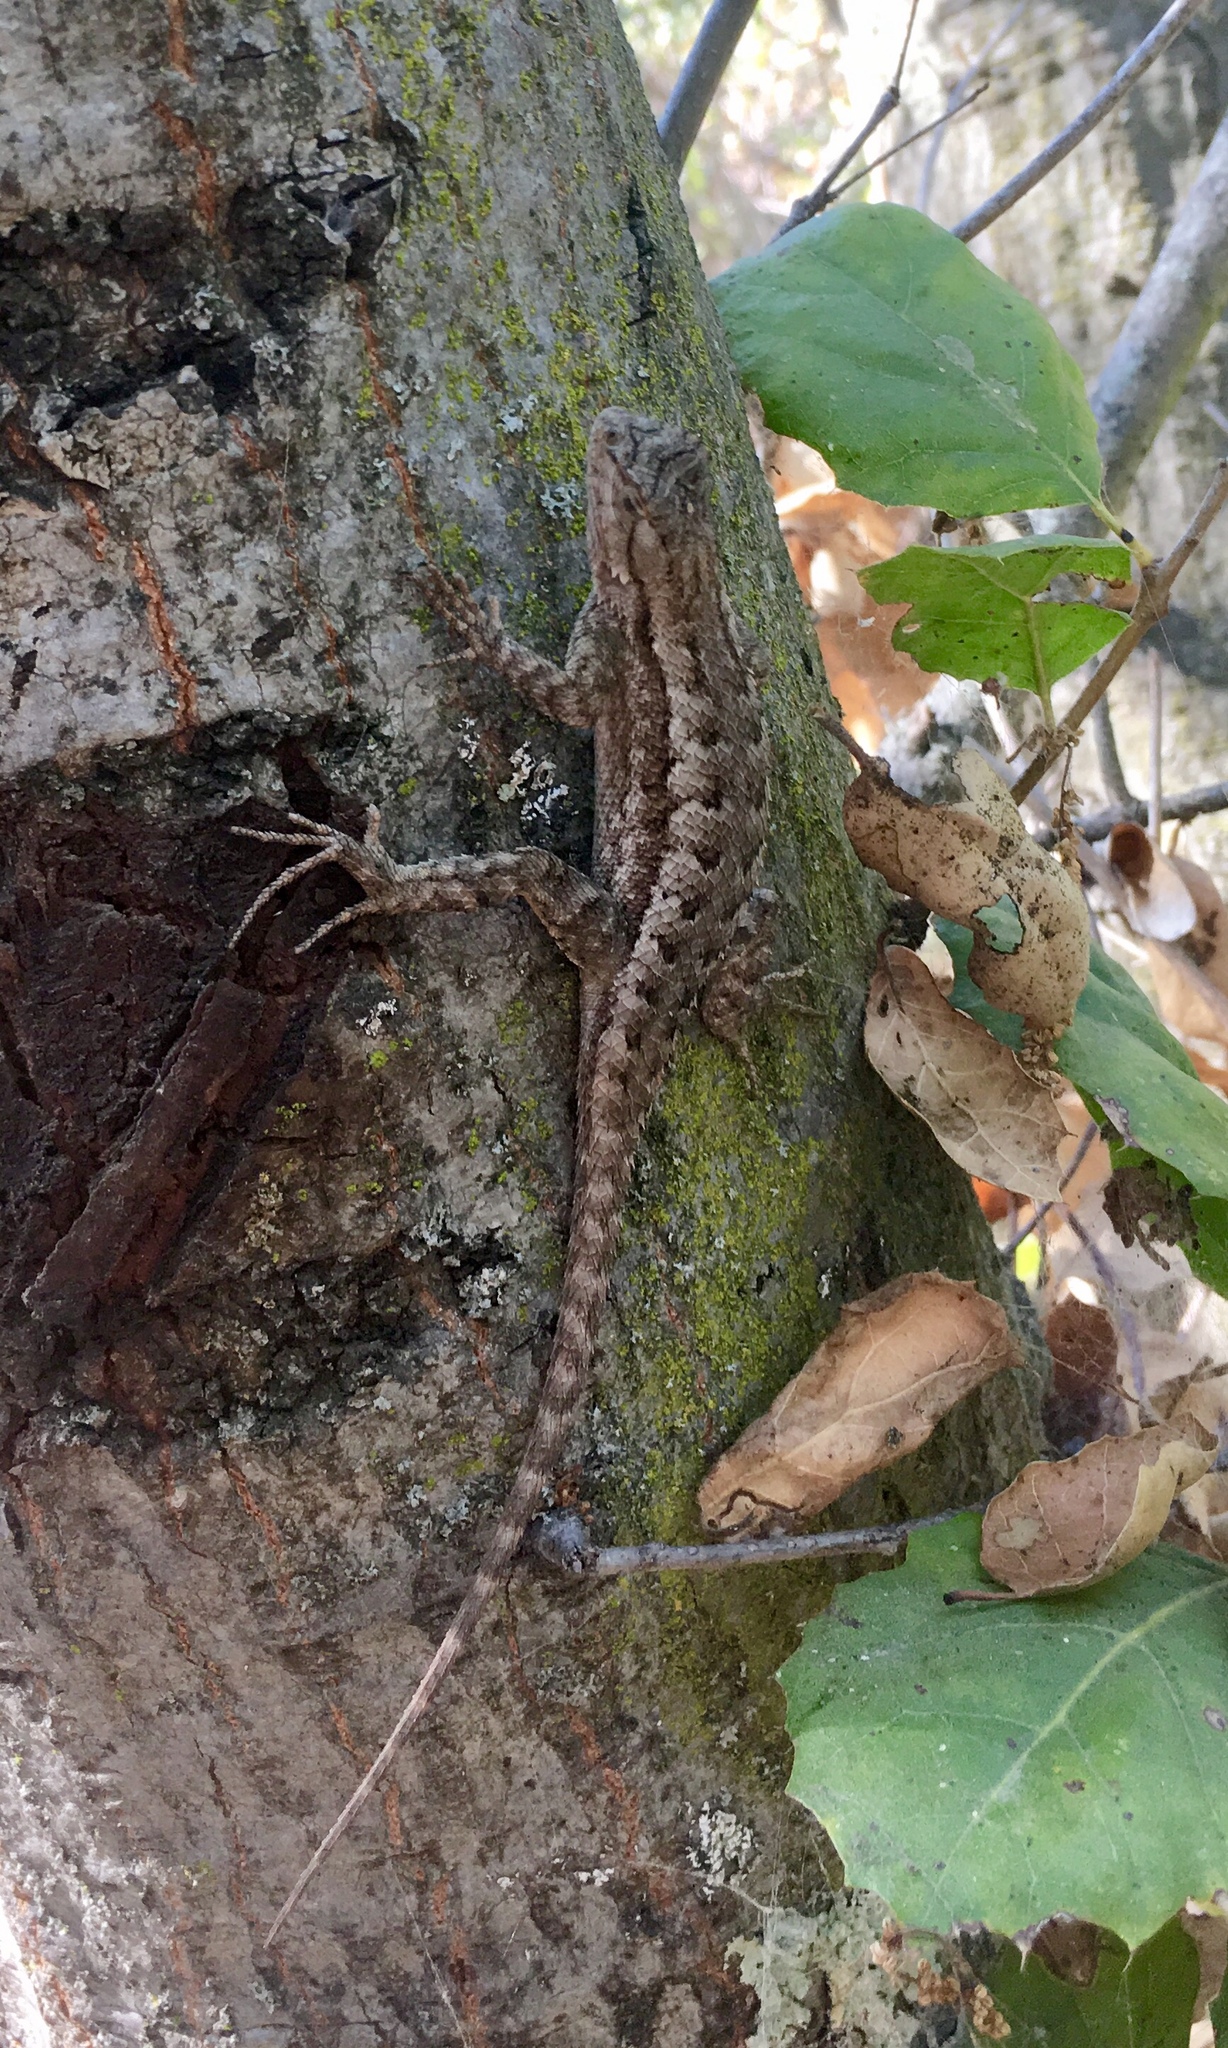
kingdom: Animalia
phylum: Chordata
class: Squamata
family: Phrynosomatidae
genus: Sceloporus
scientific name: Sceloporus occidentalis
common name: Western fence lizard
